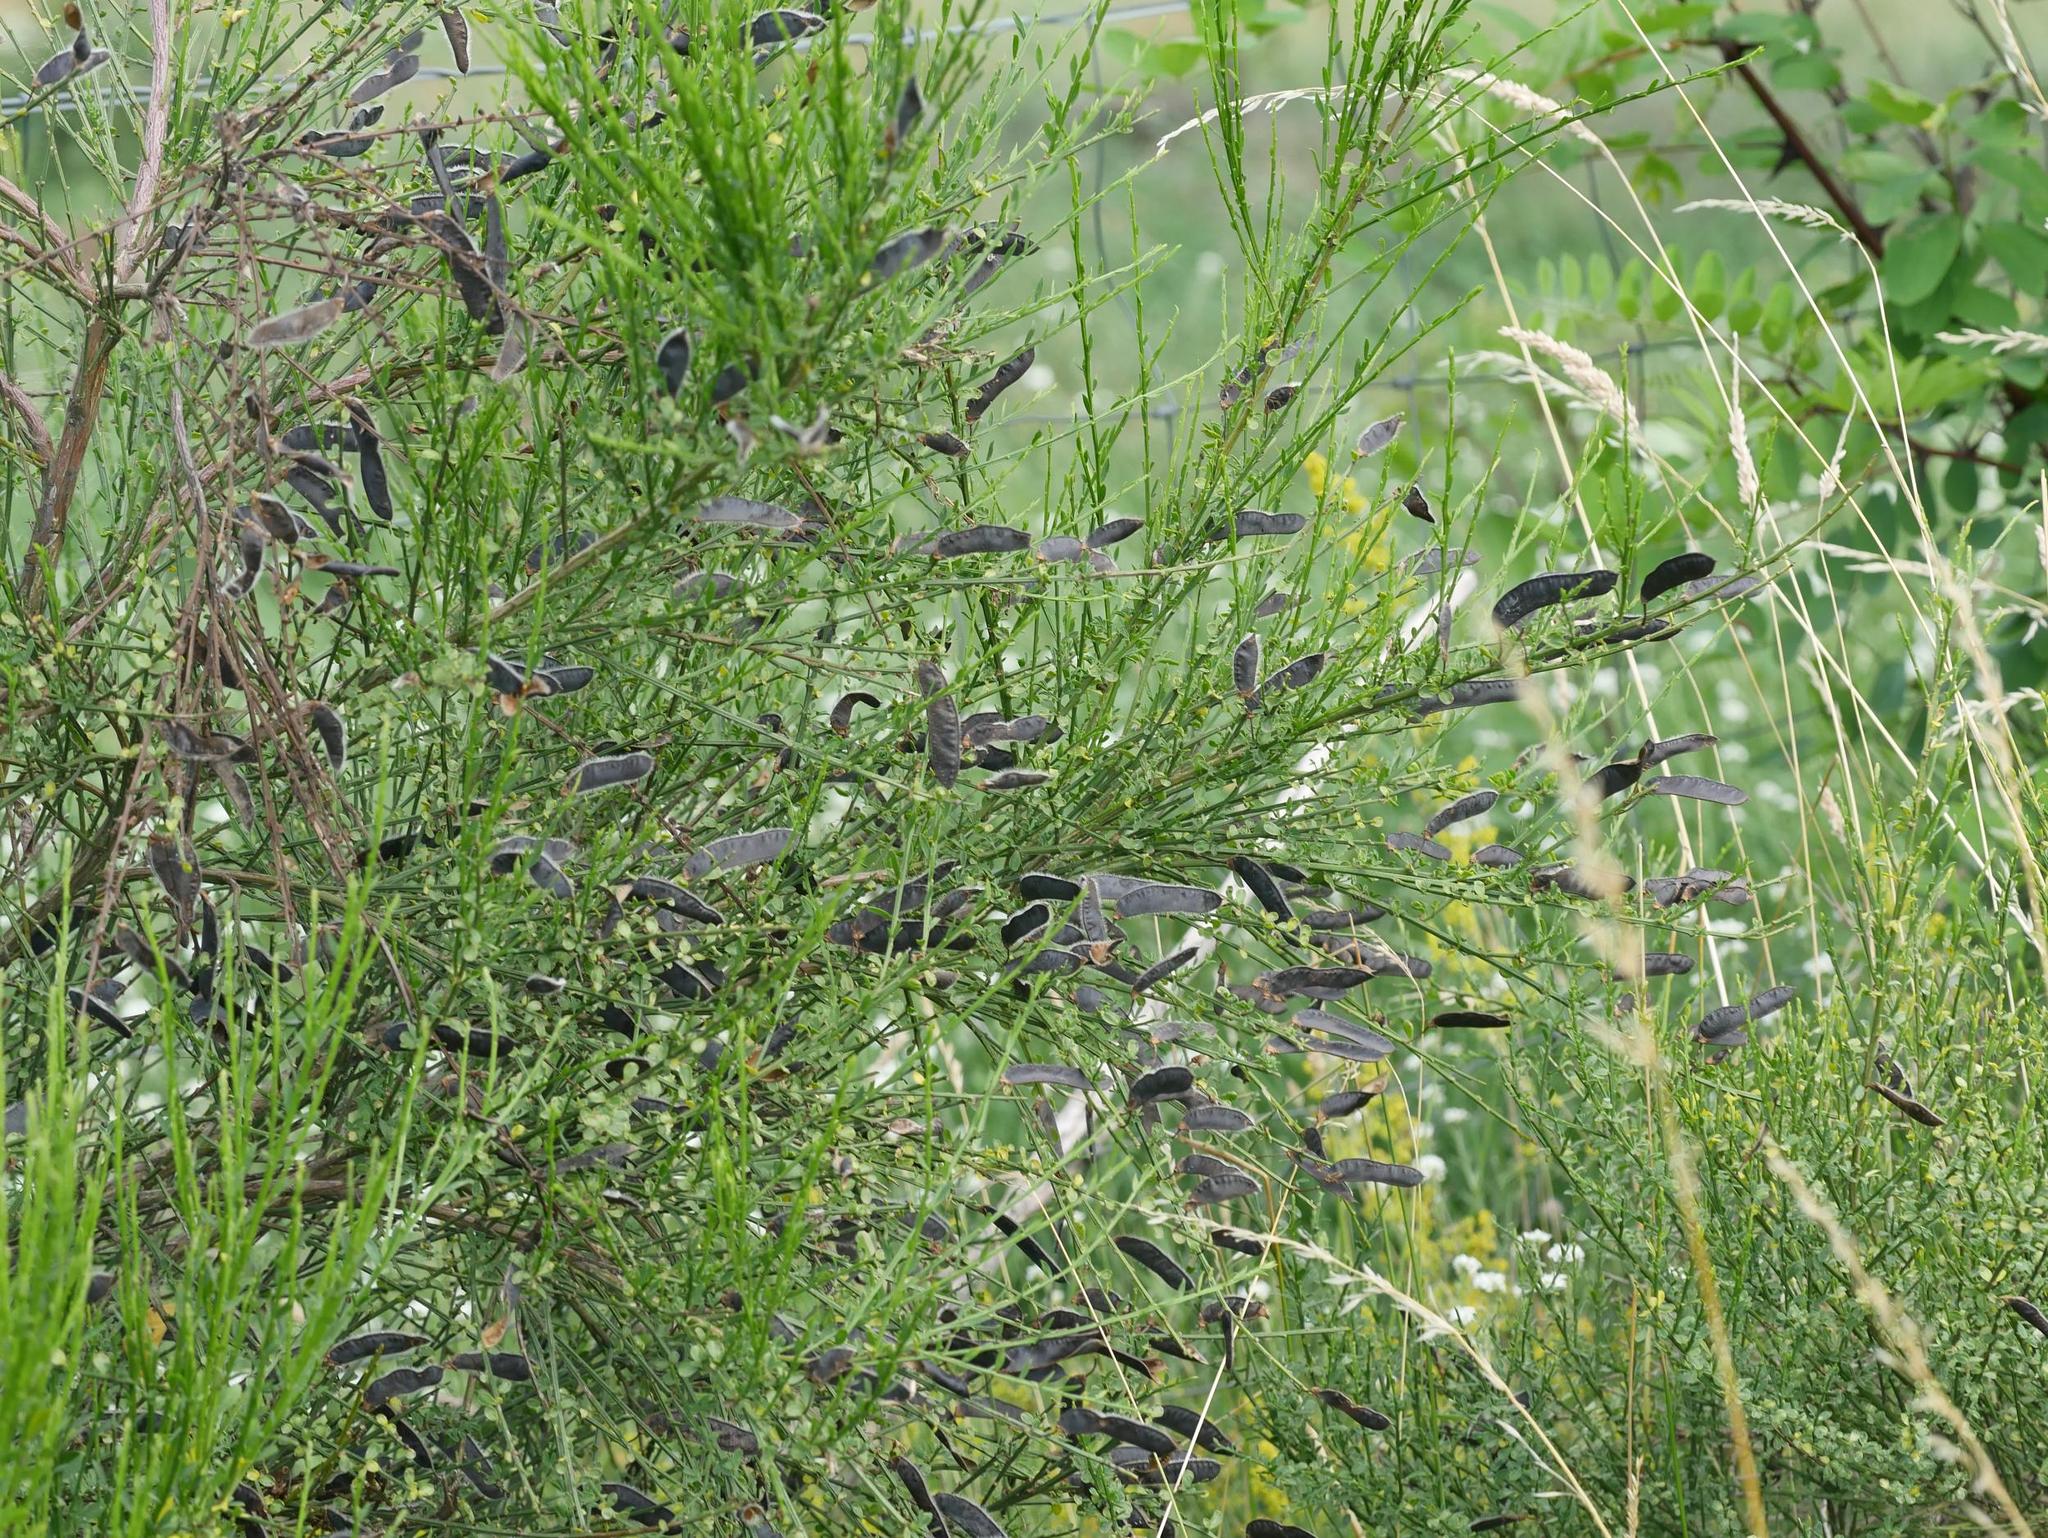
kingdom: Plantae
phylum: Tracheophyta
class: Magnoliopsida
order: Fabales
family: Fabaceae
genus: Cytisus
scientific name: Cytisus scoparius
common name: Scotch broom
